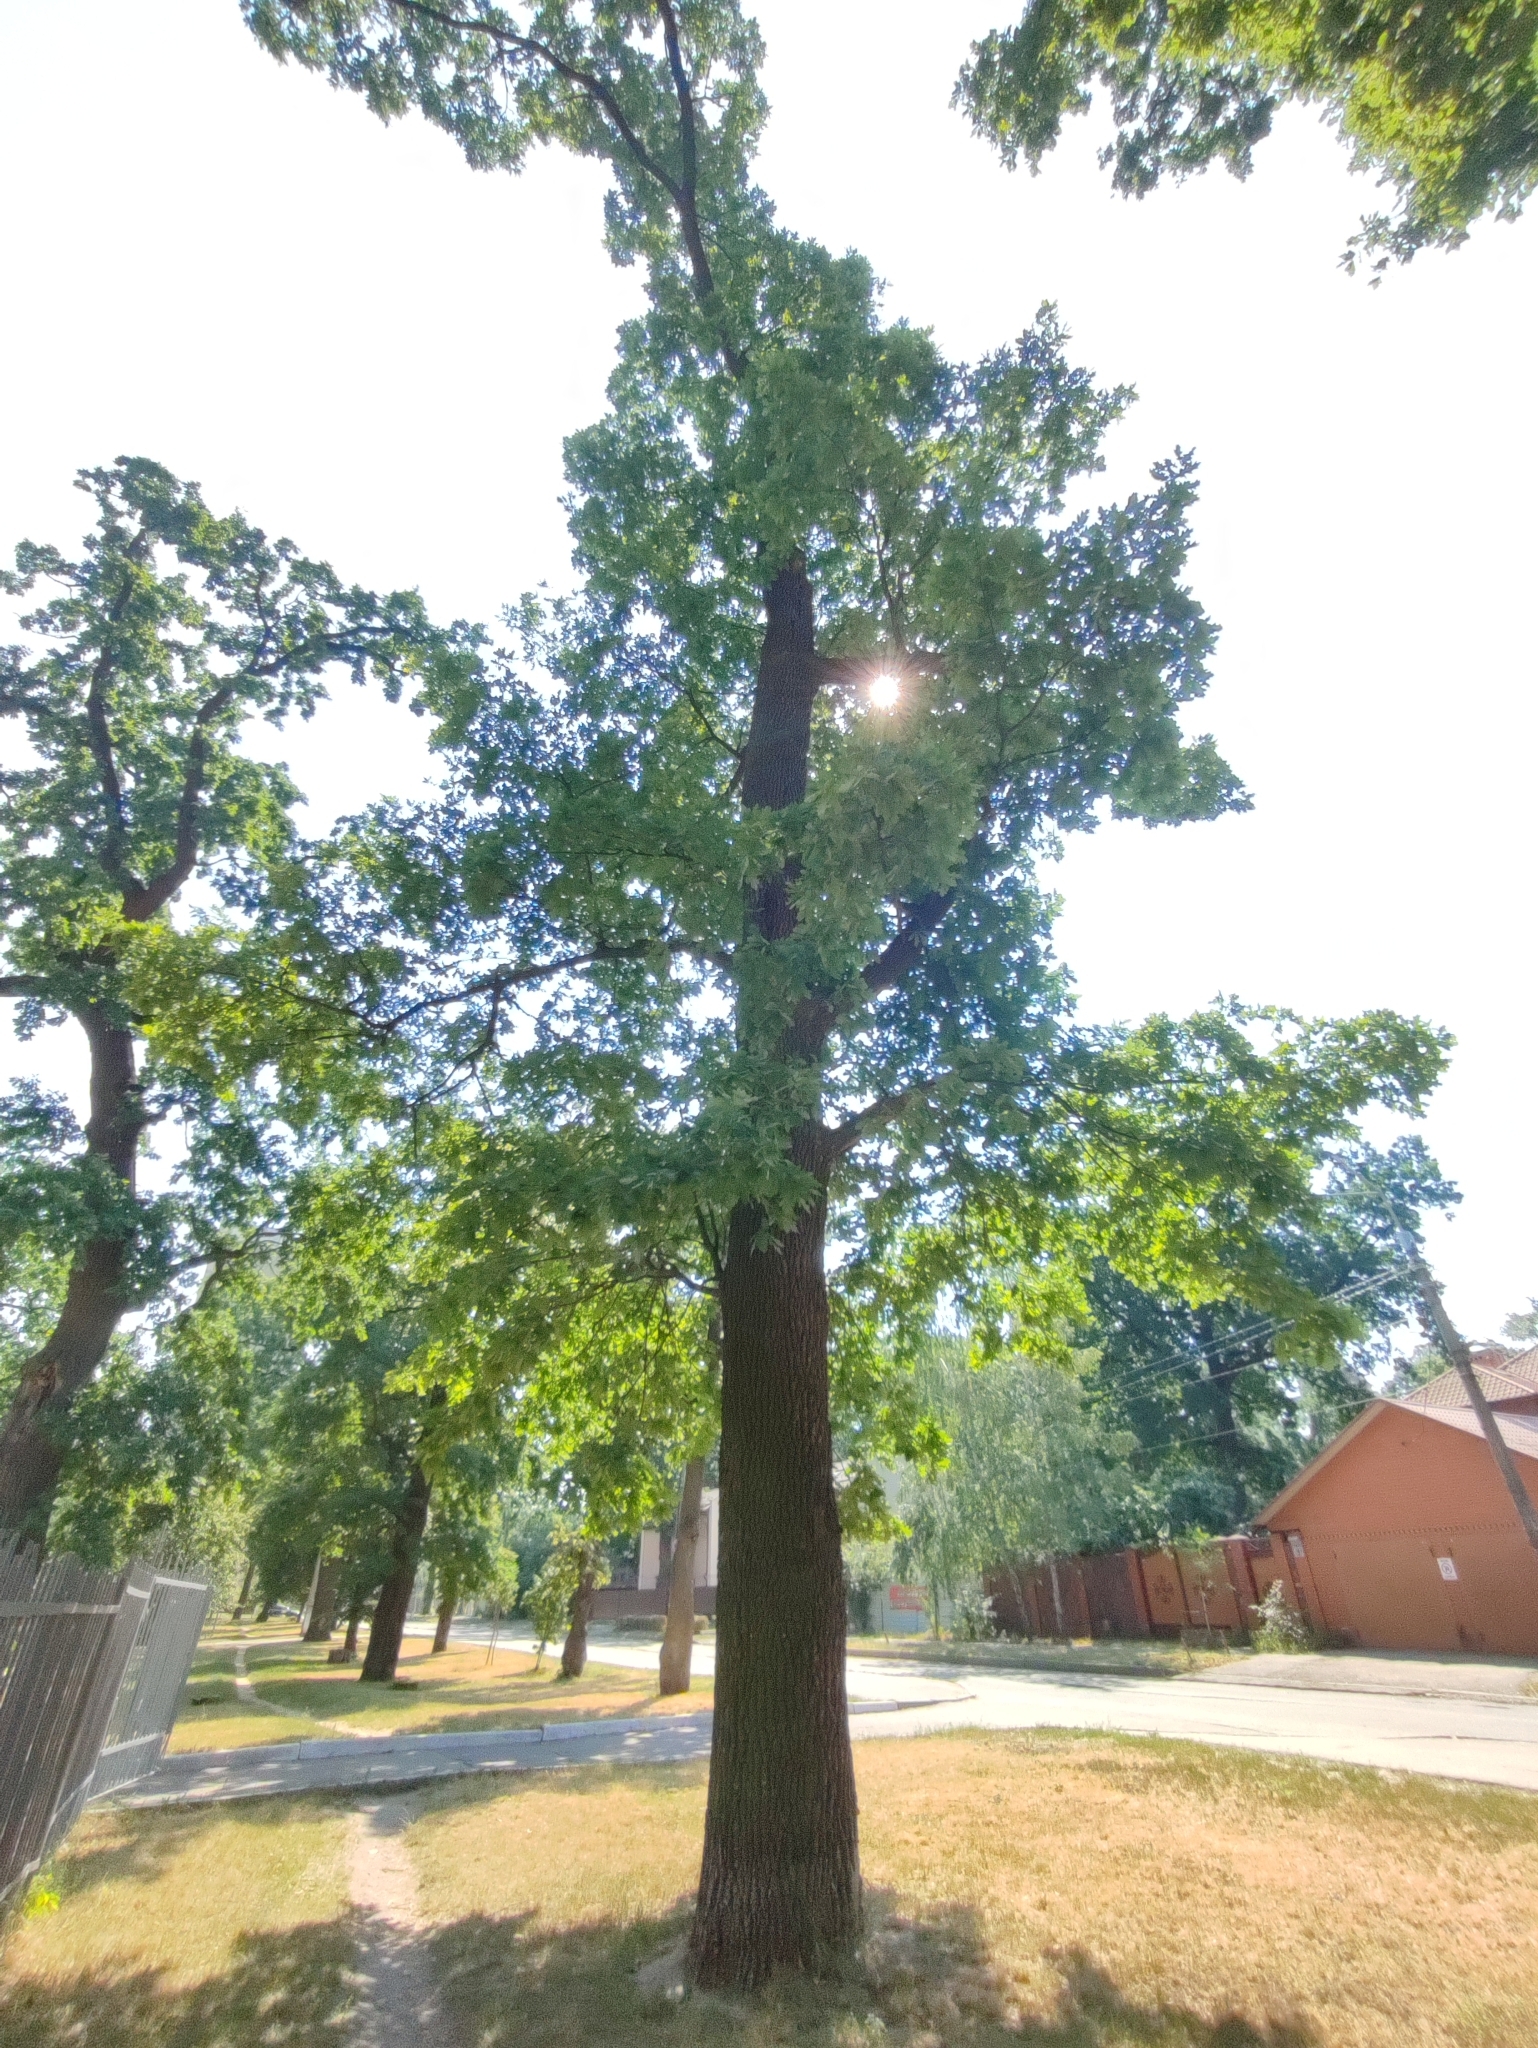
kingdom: Plantae
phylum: Tracheophyta
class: Magnoliopsida
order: Fagales
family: Fagaceae
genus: Quercus
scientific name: Quercus robur
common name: Pedunculate oak
